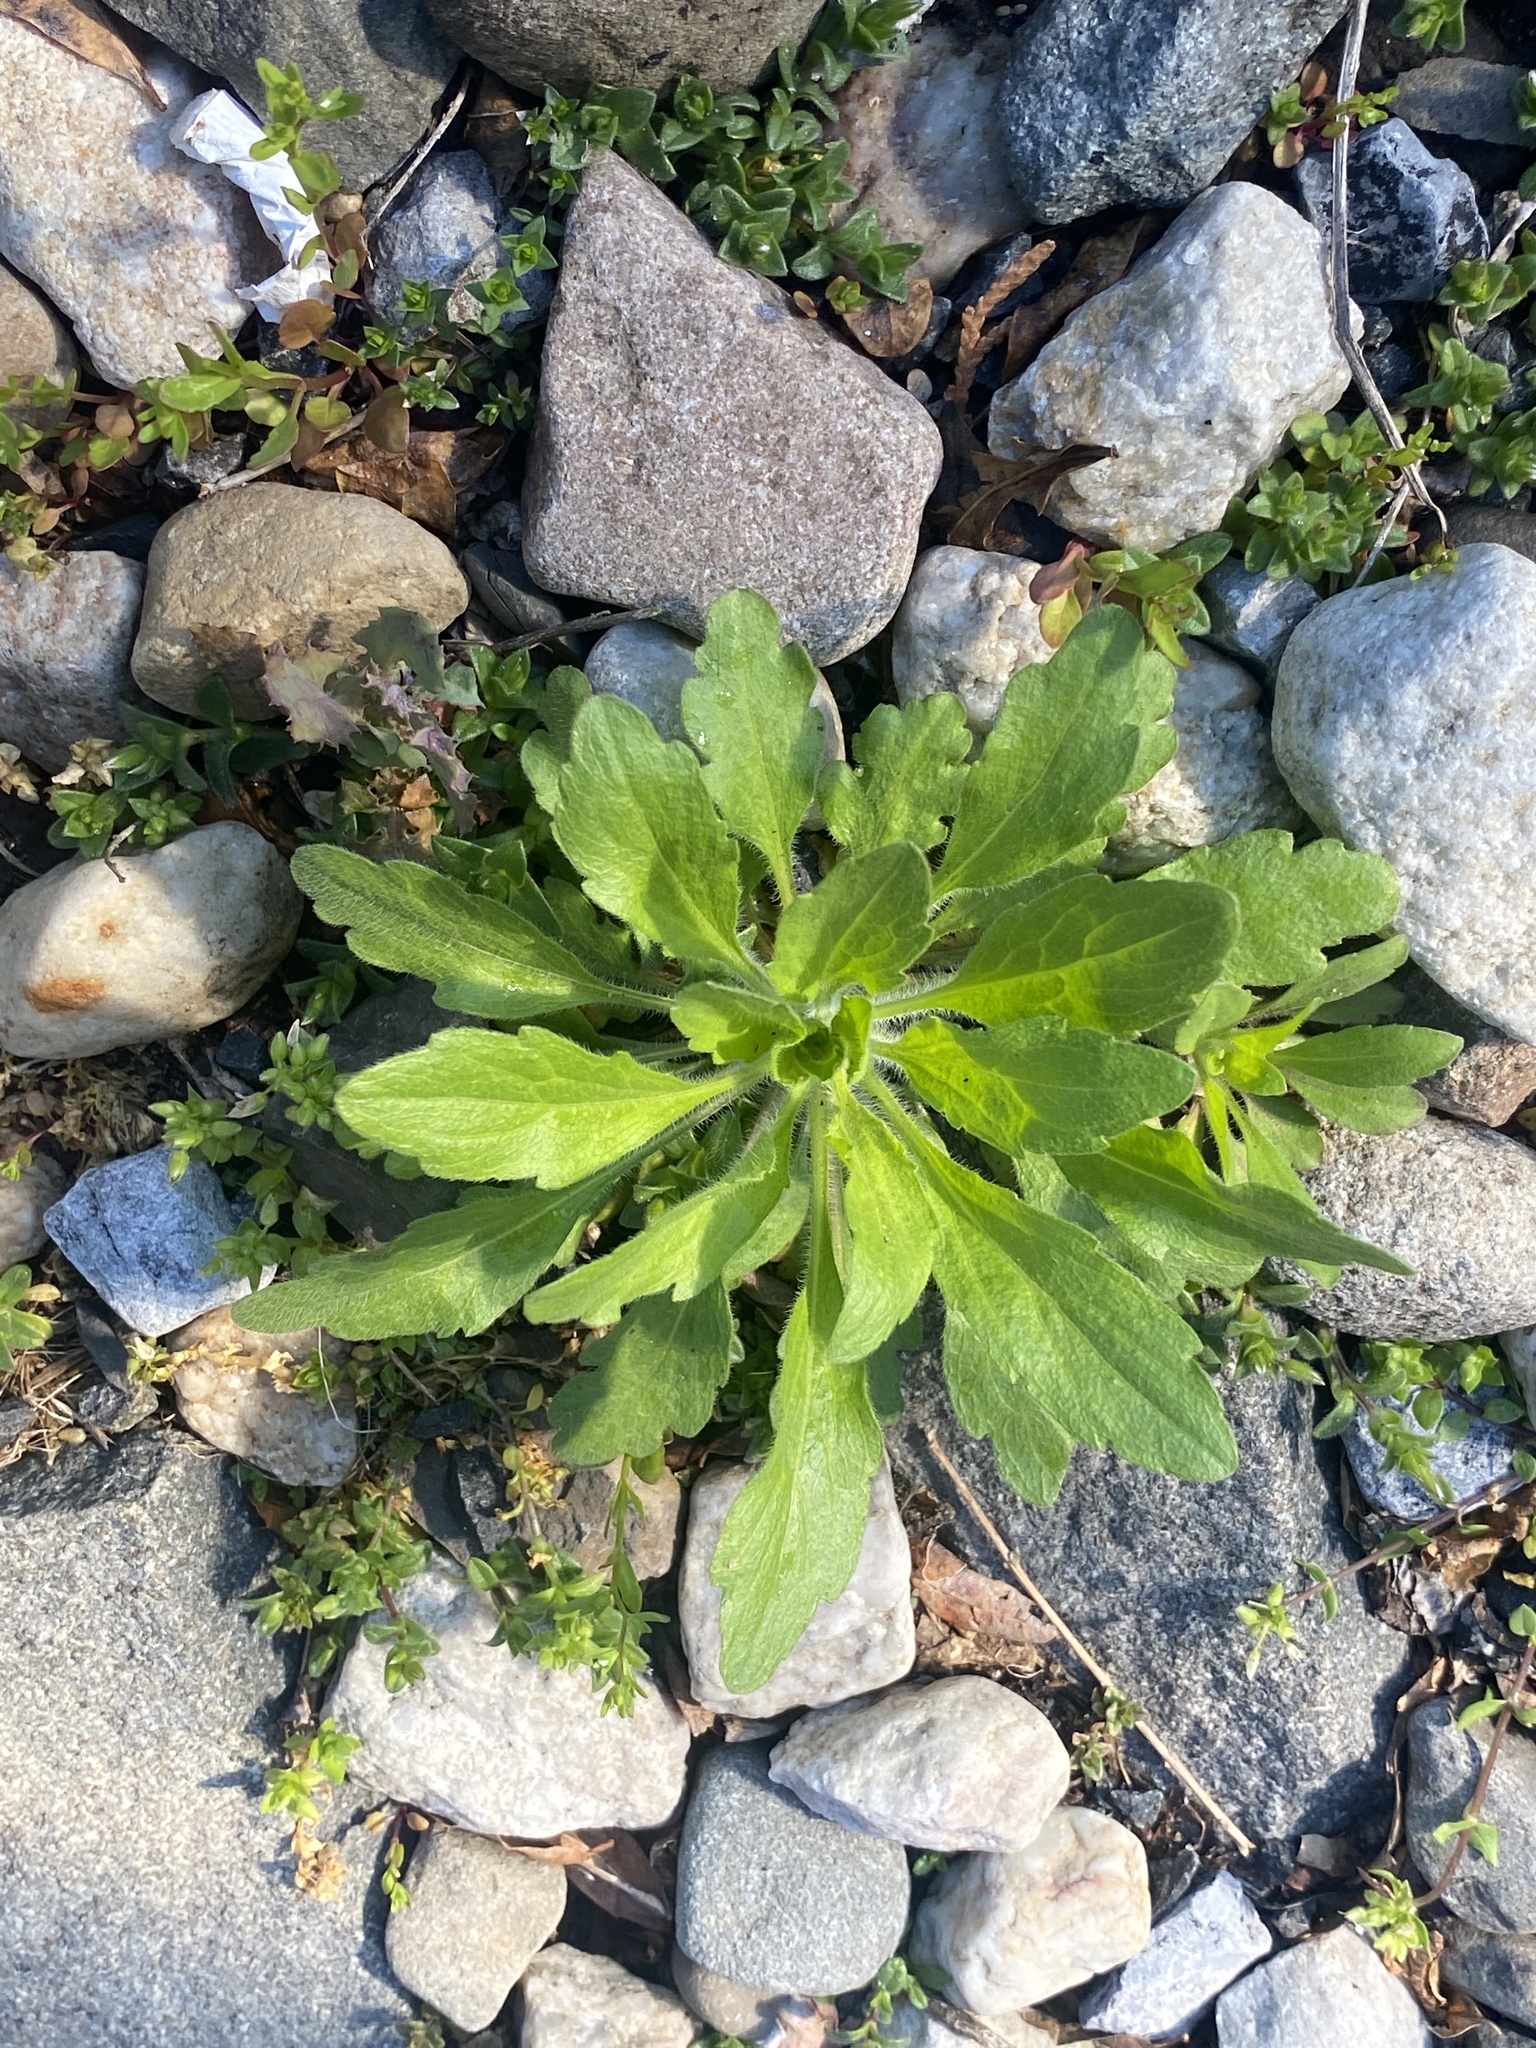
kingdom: Plantae
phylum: Tracheophyta
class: Magnoliopsida
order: Asterales
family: Asteraceae
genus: Erigeron
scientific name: Erigeron canadensis
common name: Canadian fleabane
